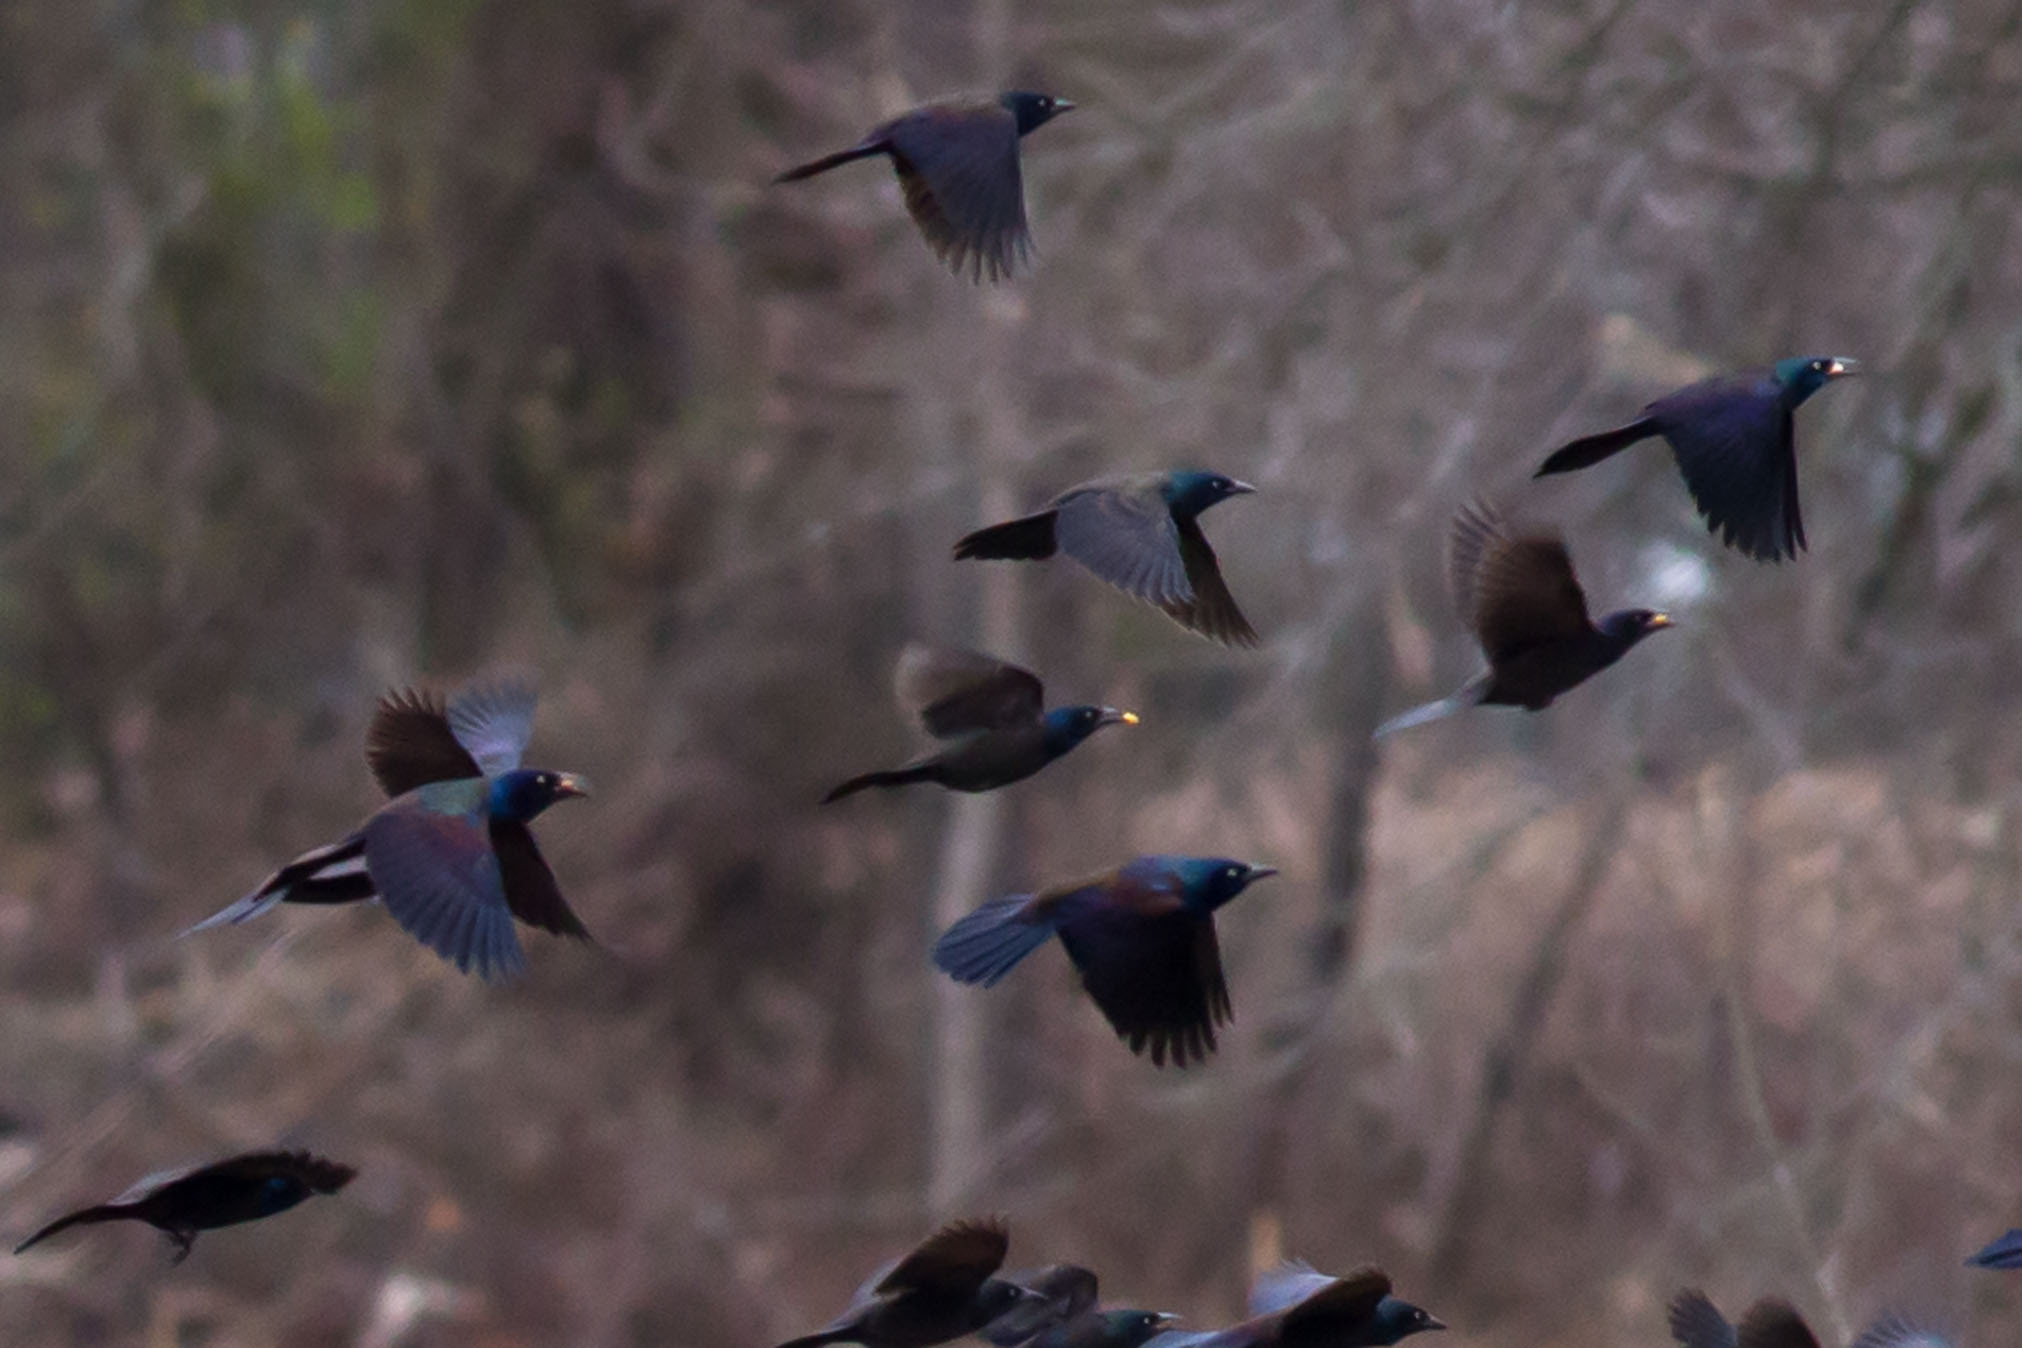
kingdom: Animalia
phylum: Chordata
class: Aves
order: Passeriformes
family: Icteridae
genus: Quiscalus
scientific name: Quiscalus quiscula
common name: Common grackle
